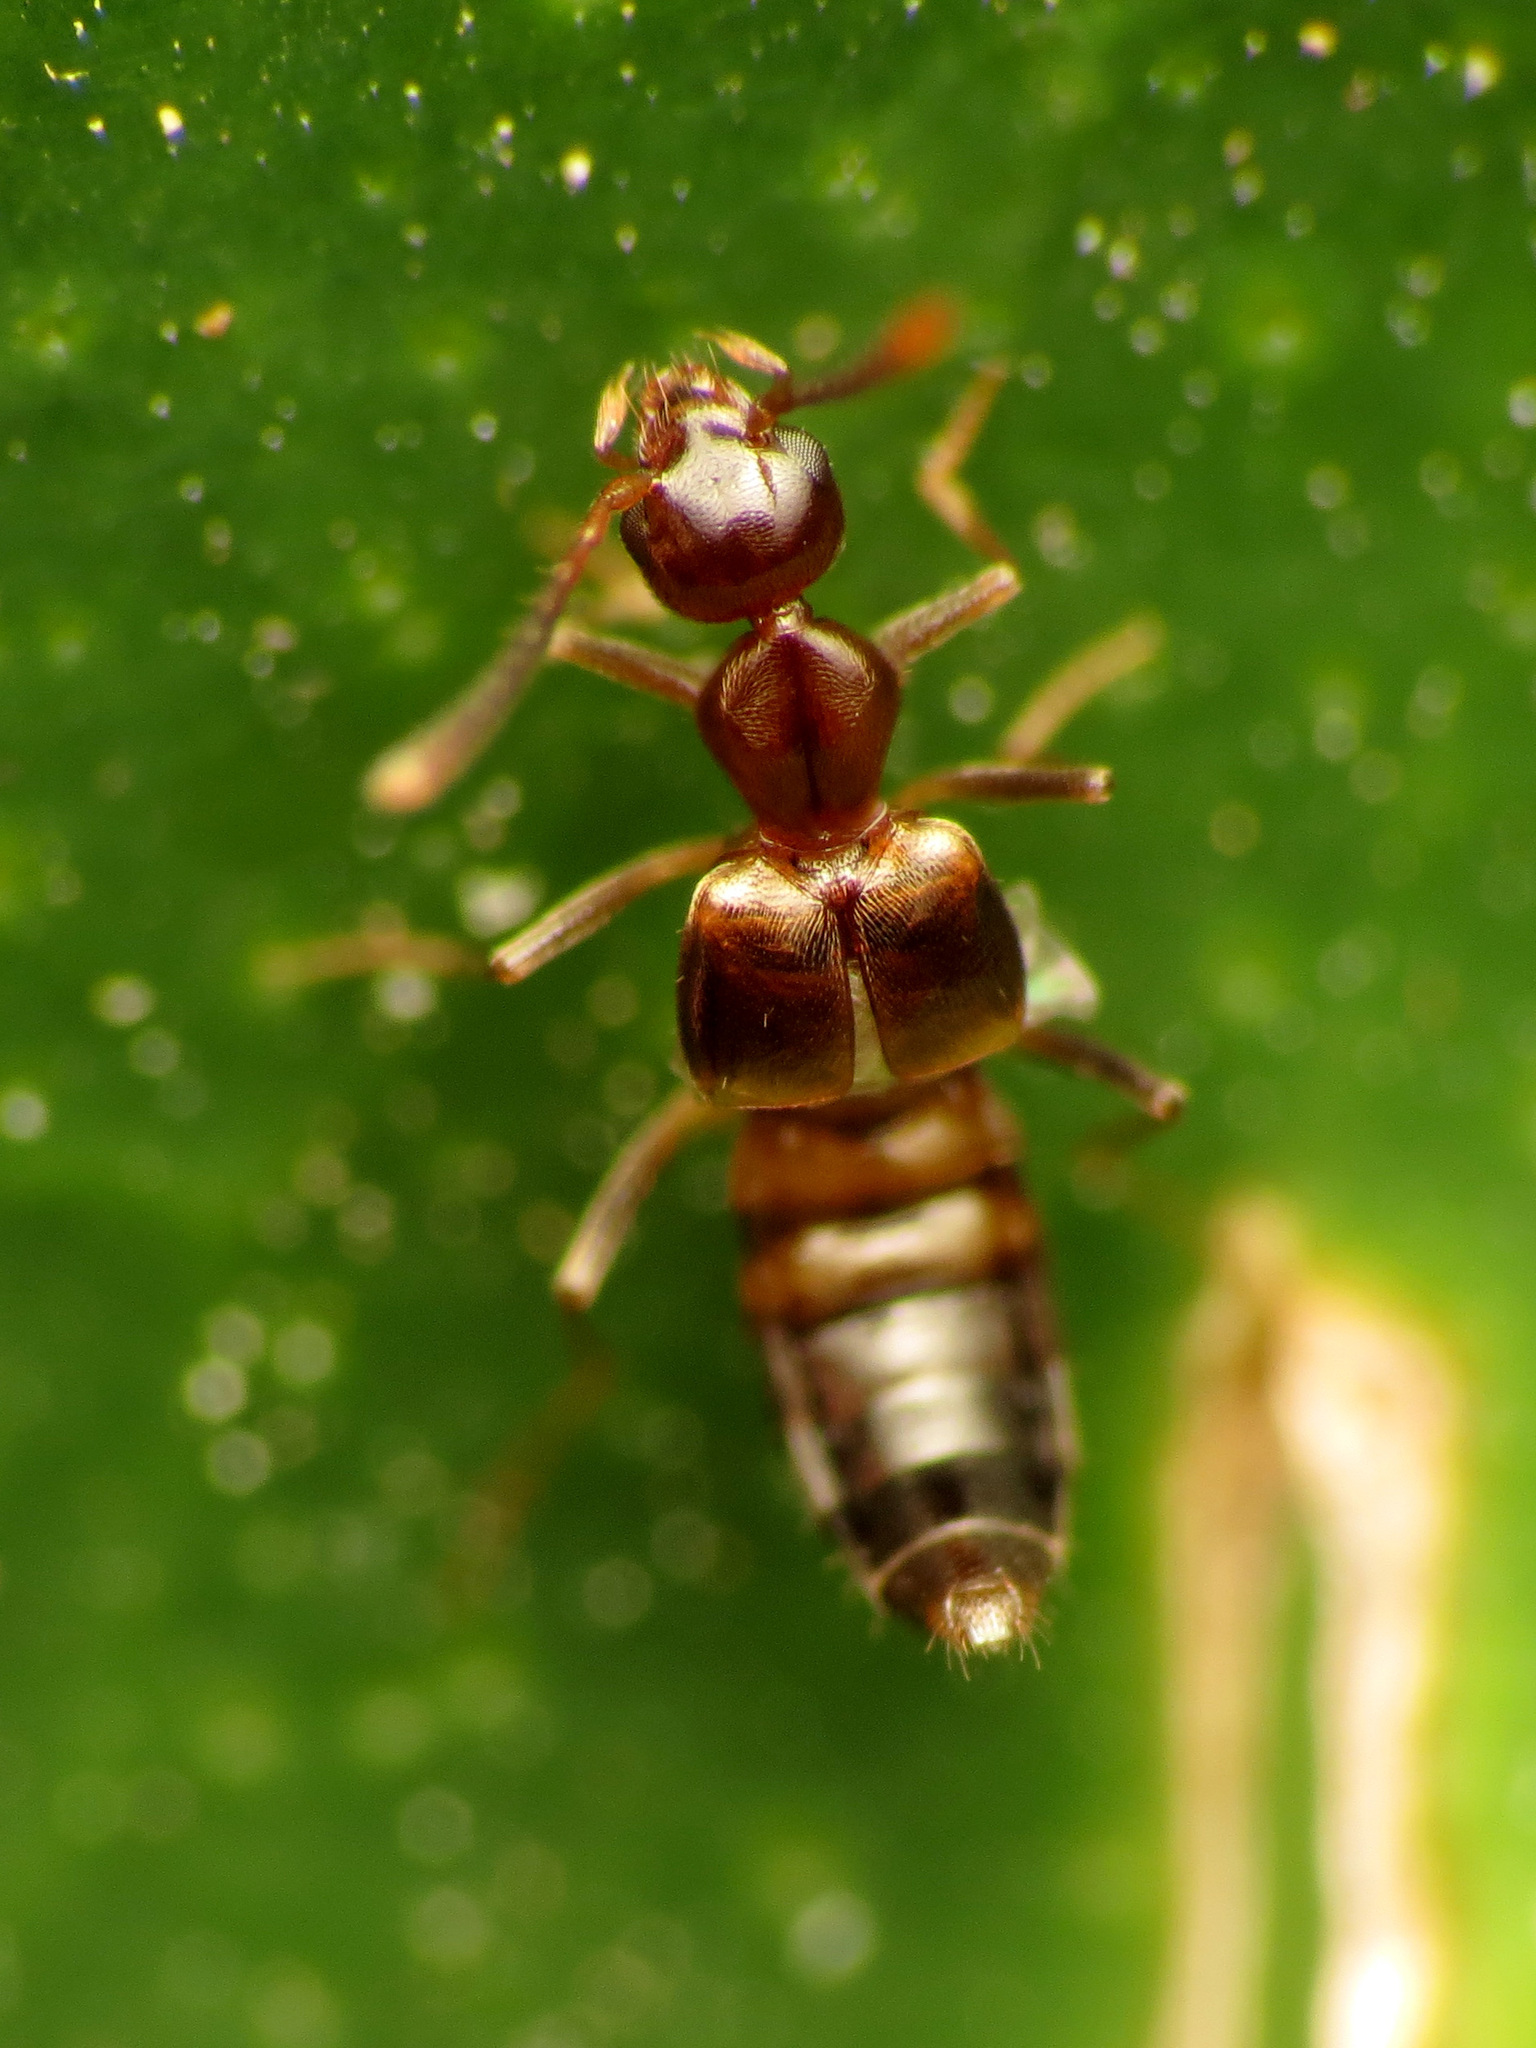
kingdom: Animalia
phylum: Arthropoda
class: Insecta
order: Coleoptera
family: Staphylinidae
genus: Myrmecocephalus
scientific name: Myrmecocephalus concinnus
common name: Rove beetle
